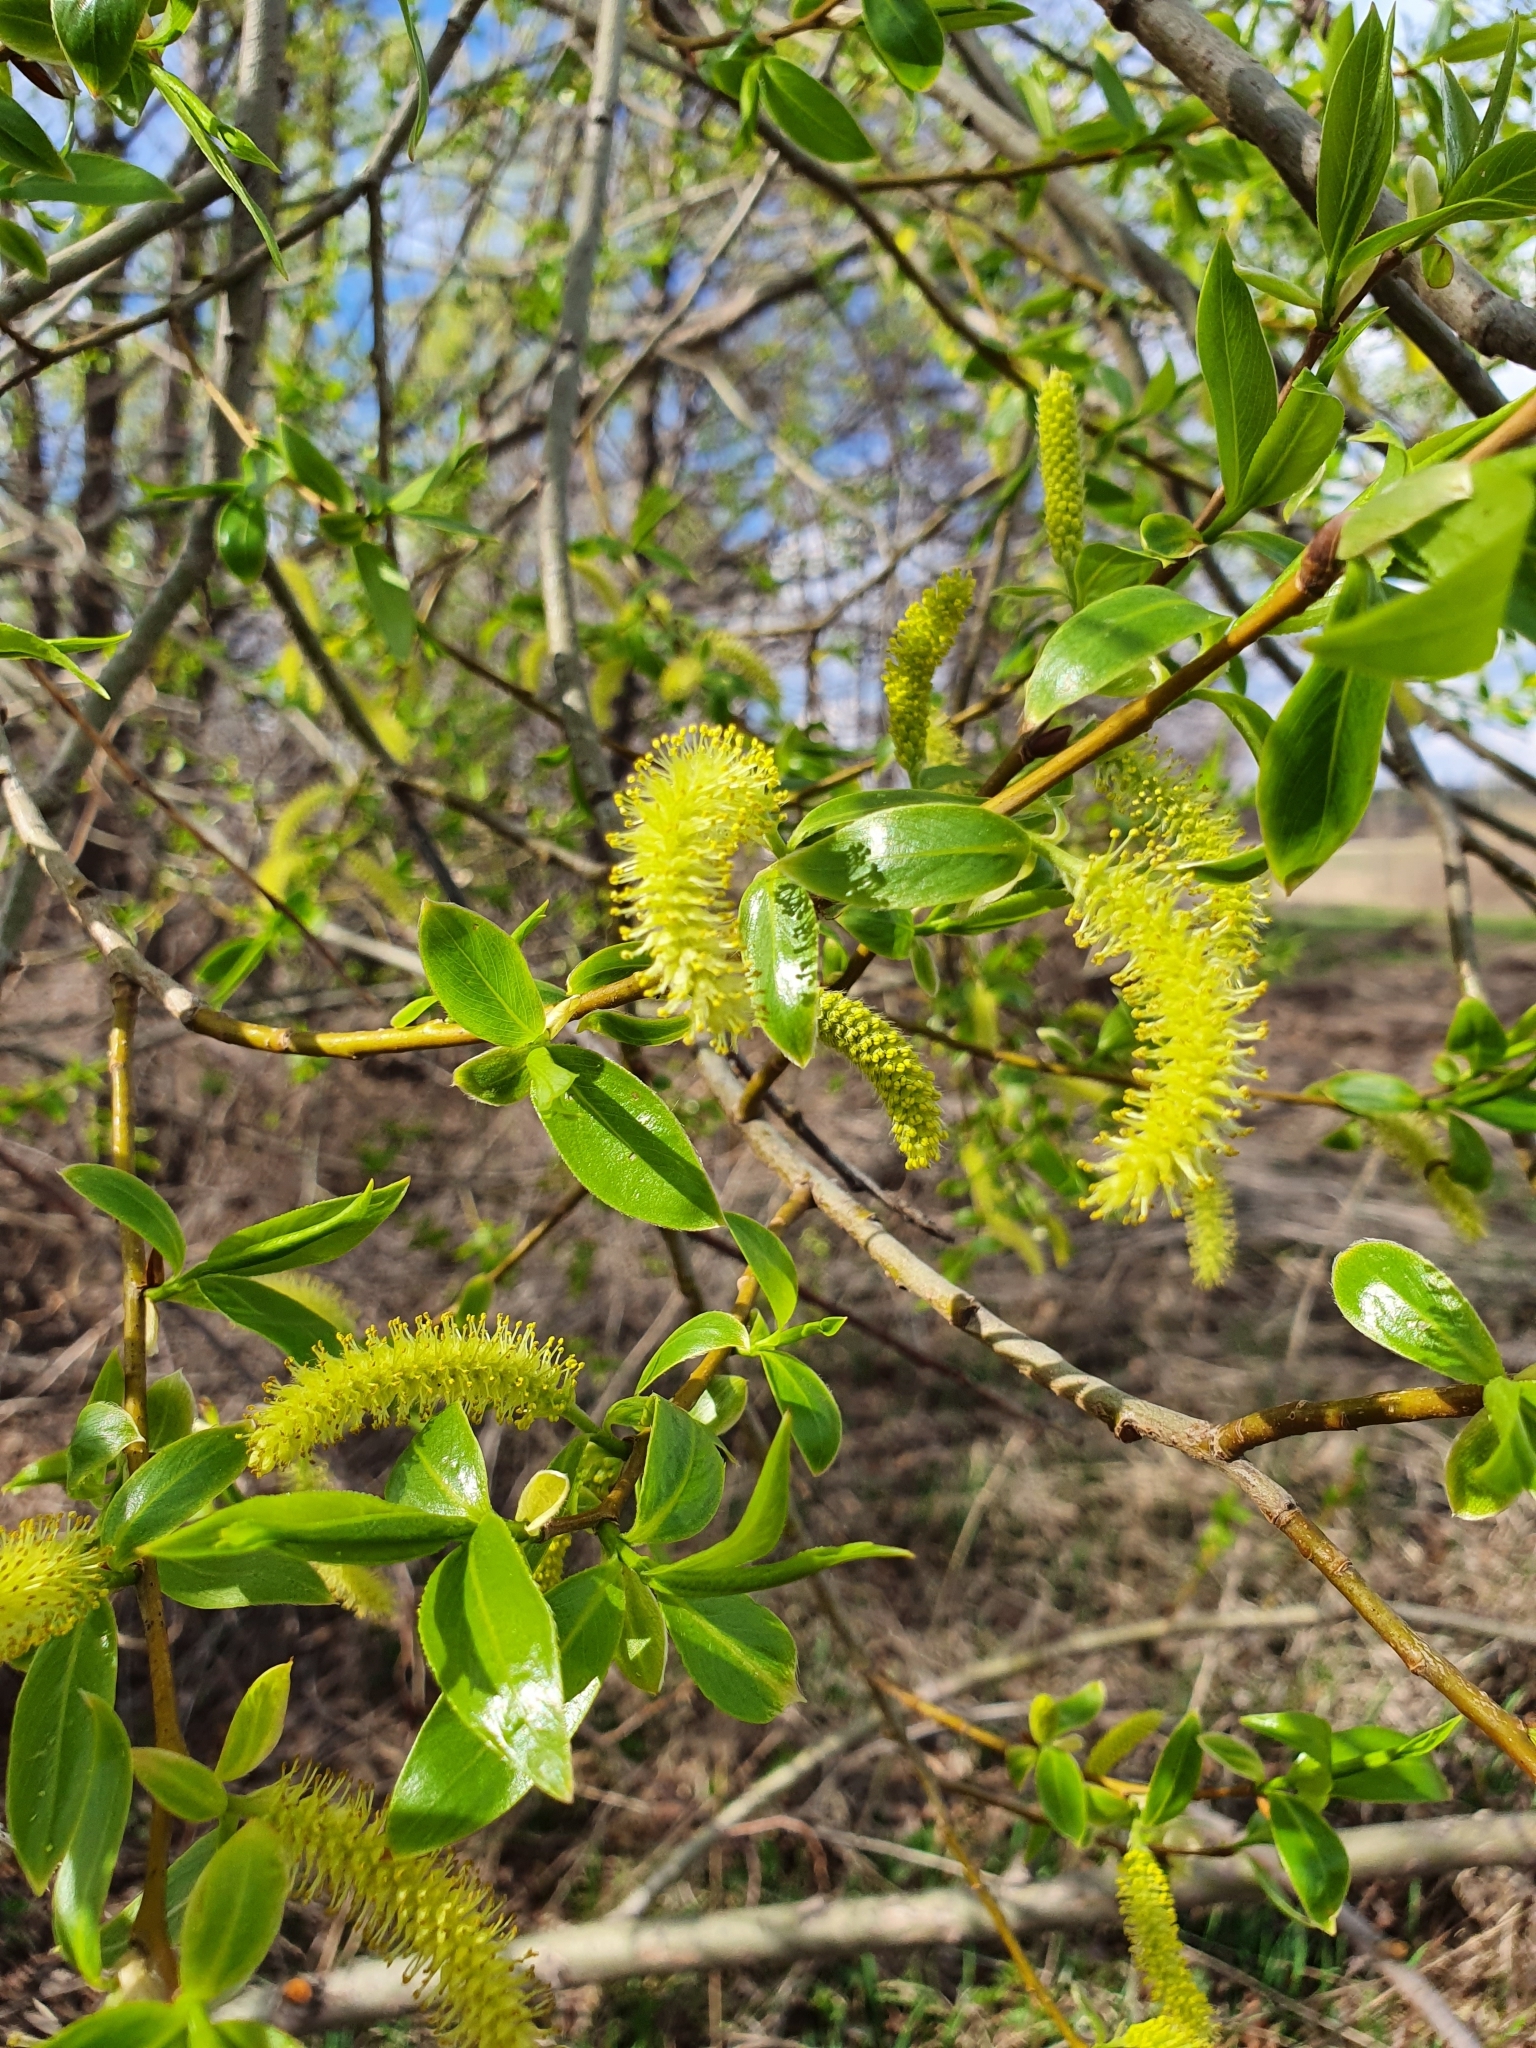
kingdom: Plantae
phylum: Tracheophyta
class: Magnoliopsida
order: Malpighiales
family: Salicaceae
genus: Salix
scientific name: Salix alba
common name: White willow
